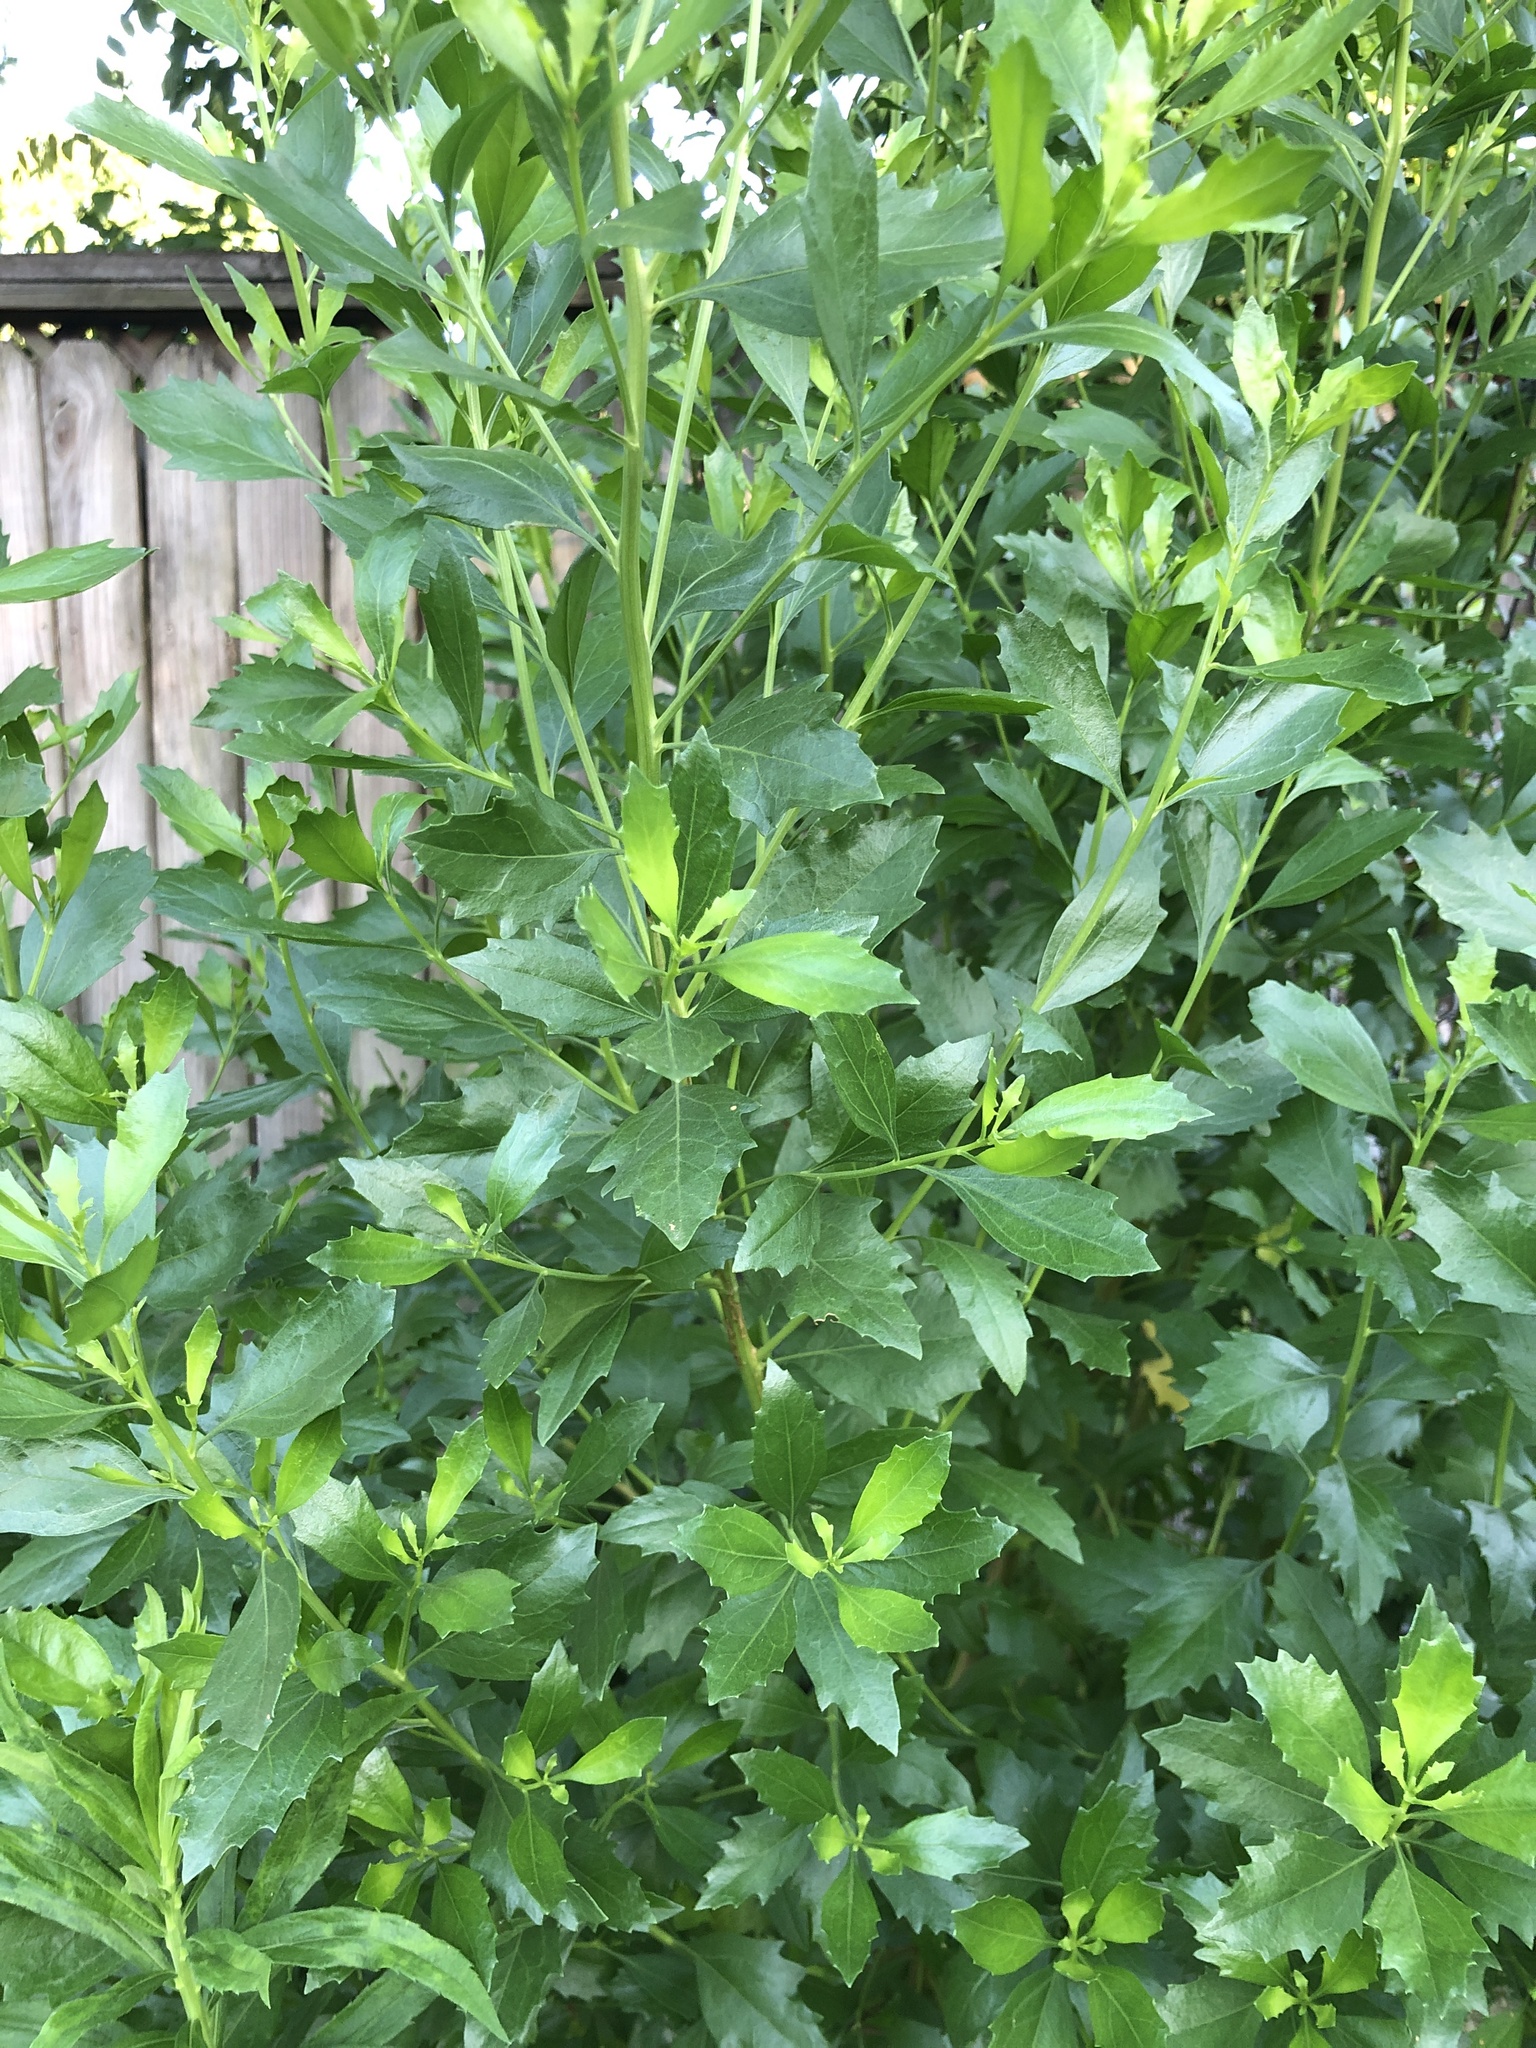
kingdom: Plantae
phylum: Tracheophyta
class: Magnoliopsida
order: Asterales
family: Asteraceae
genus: Baccharis
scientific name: Baccharis halimifolia
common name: Eastern baccharis
